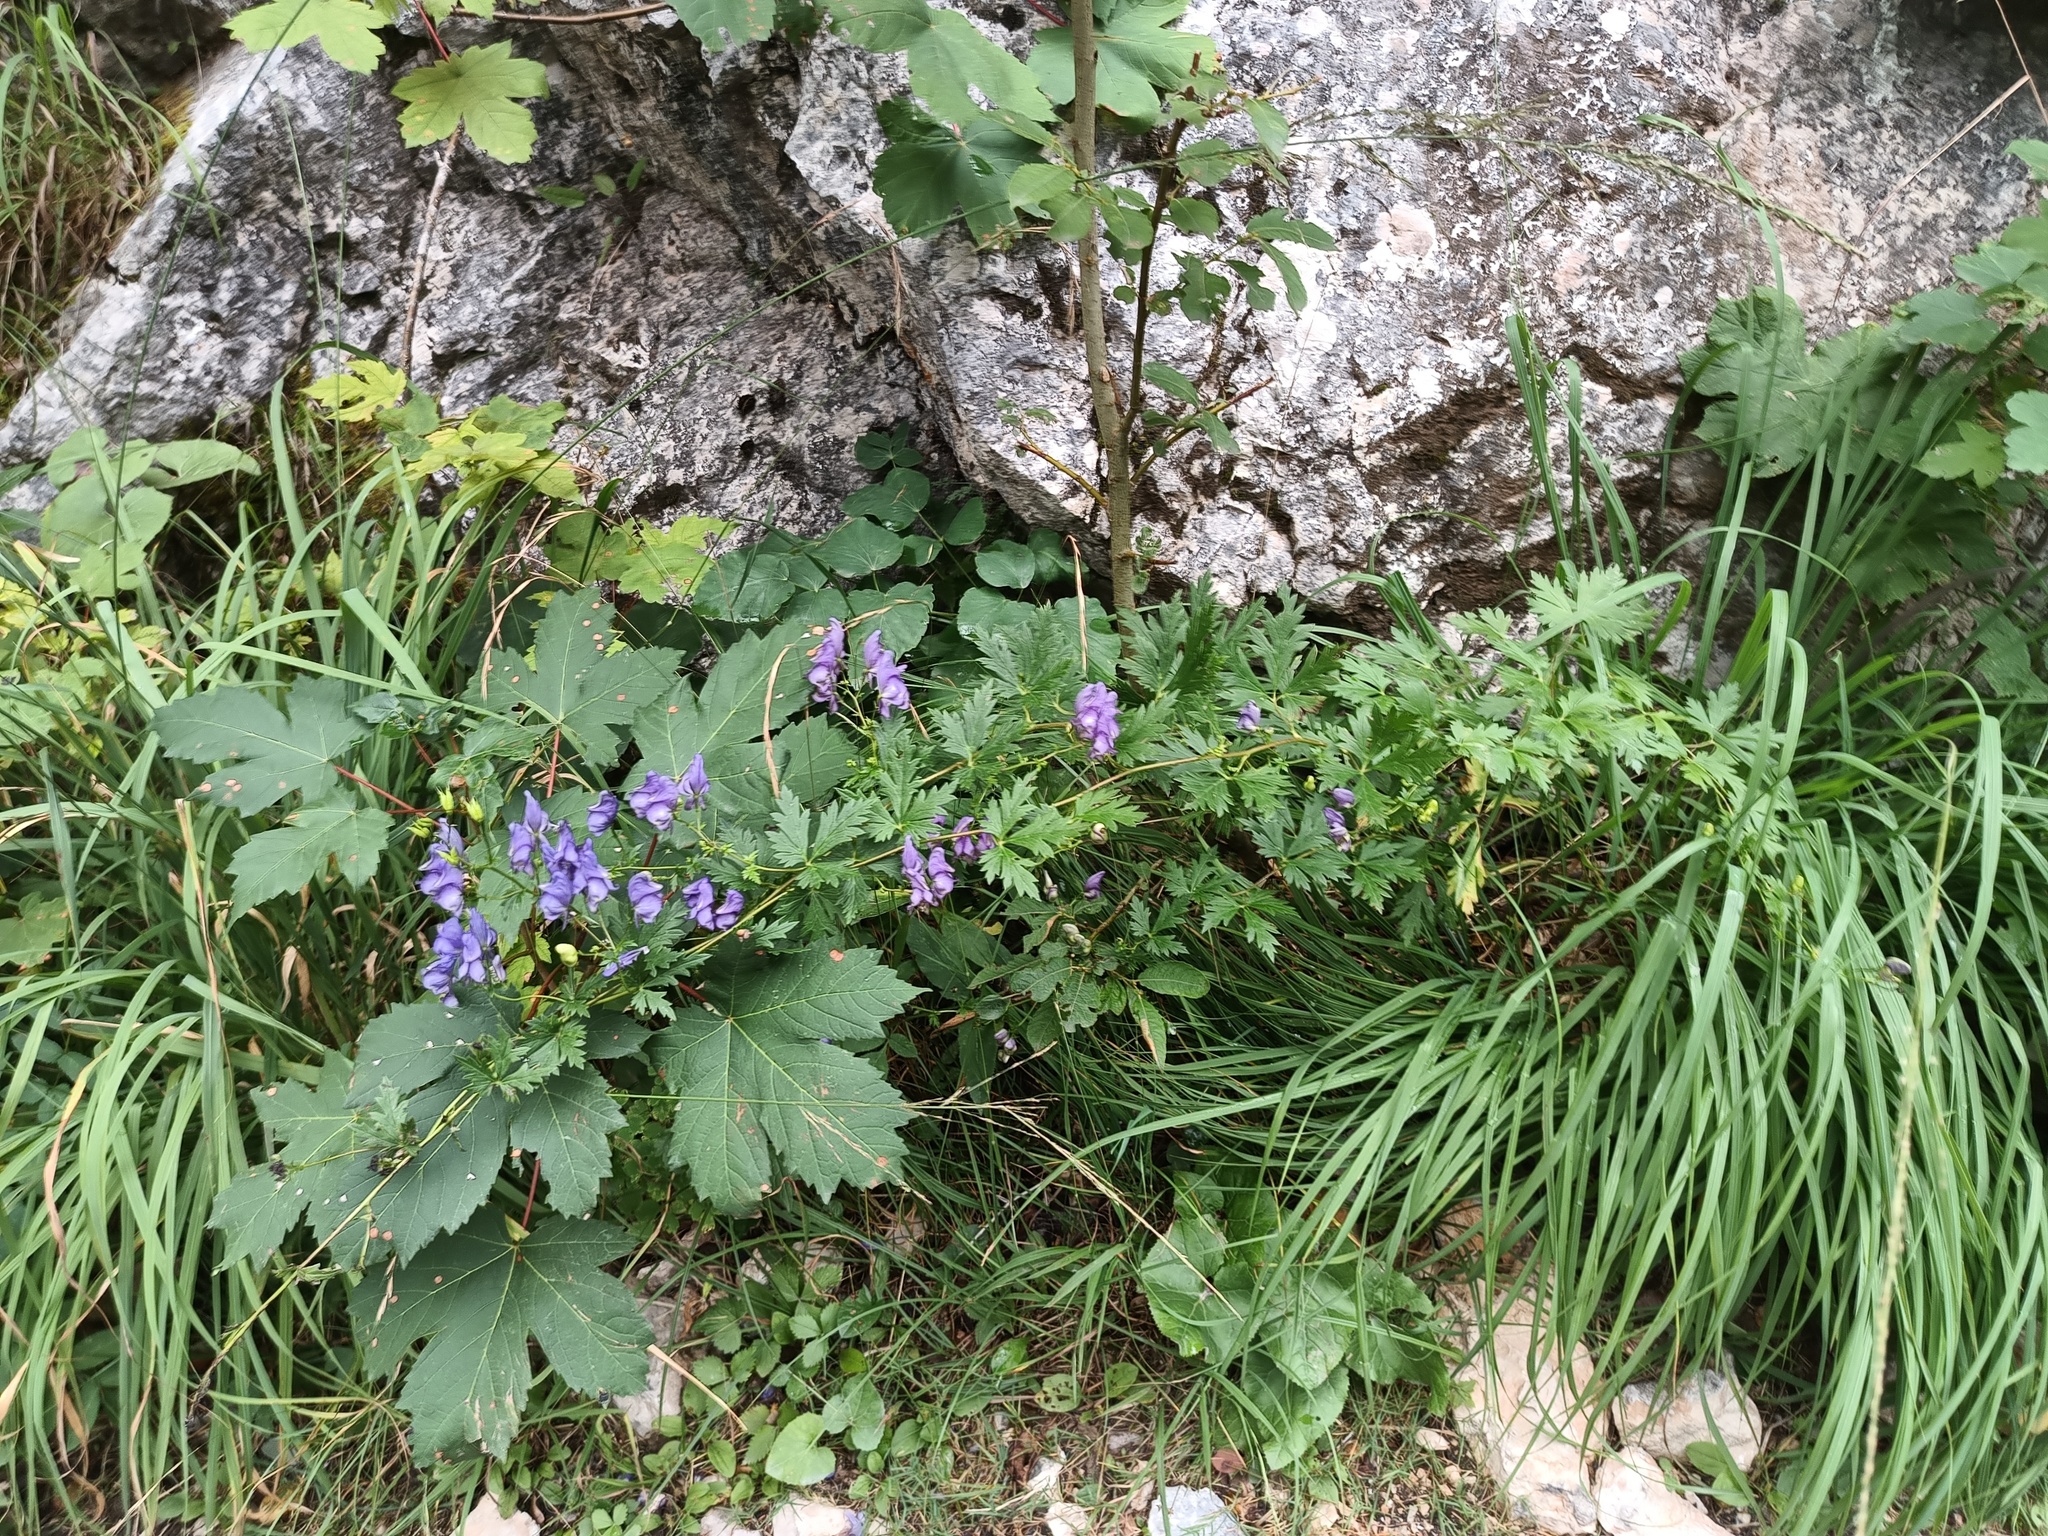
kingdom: Plantae
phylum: Tracheophyta
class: Magnoliopsida
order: Ranunculales
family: Ranunculaceae
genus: Aconitum
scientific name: Aconitum variegatum
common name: Manchurian monkshood
